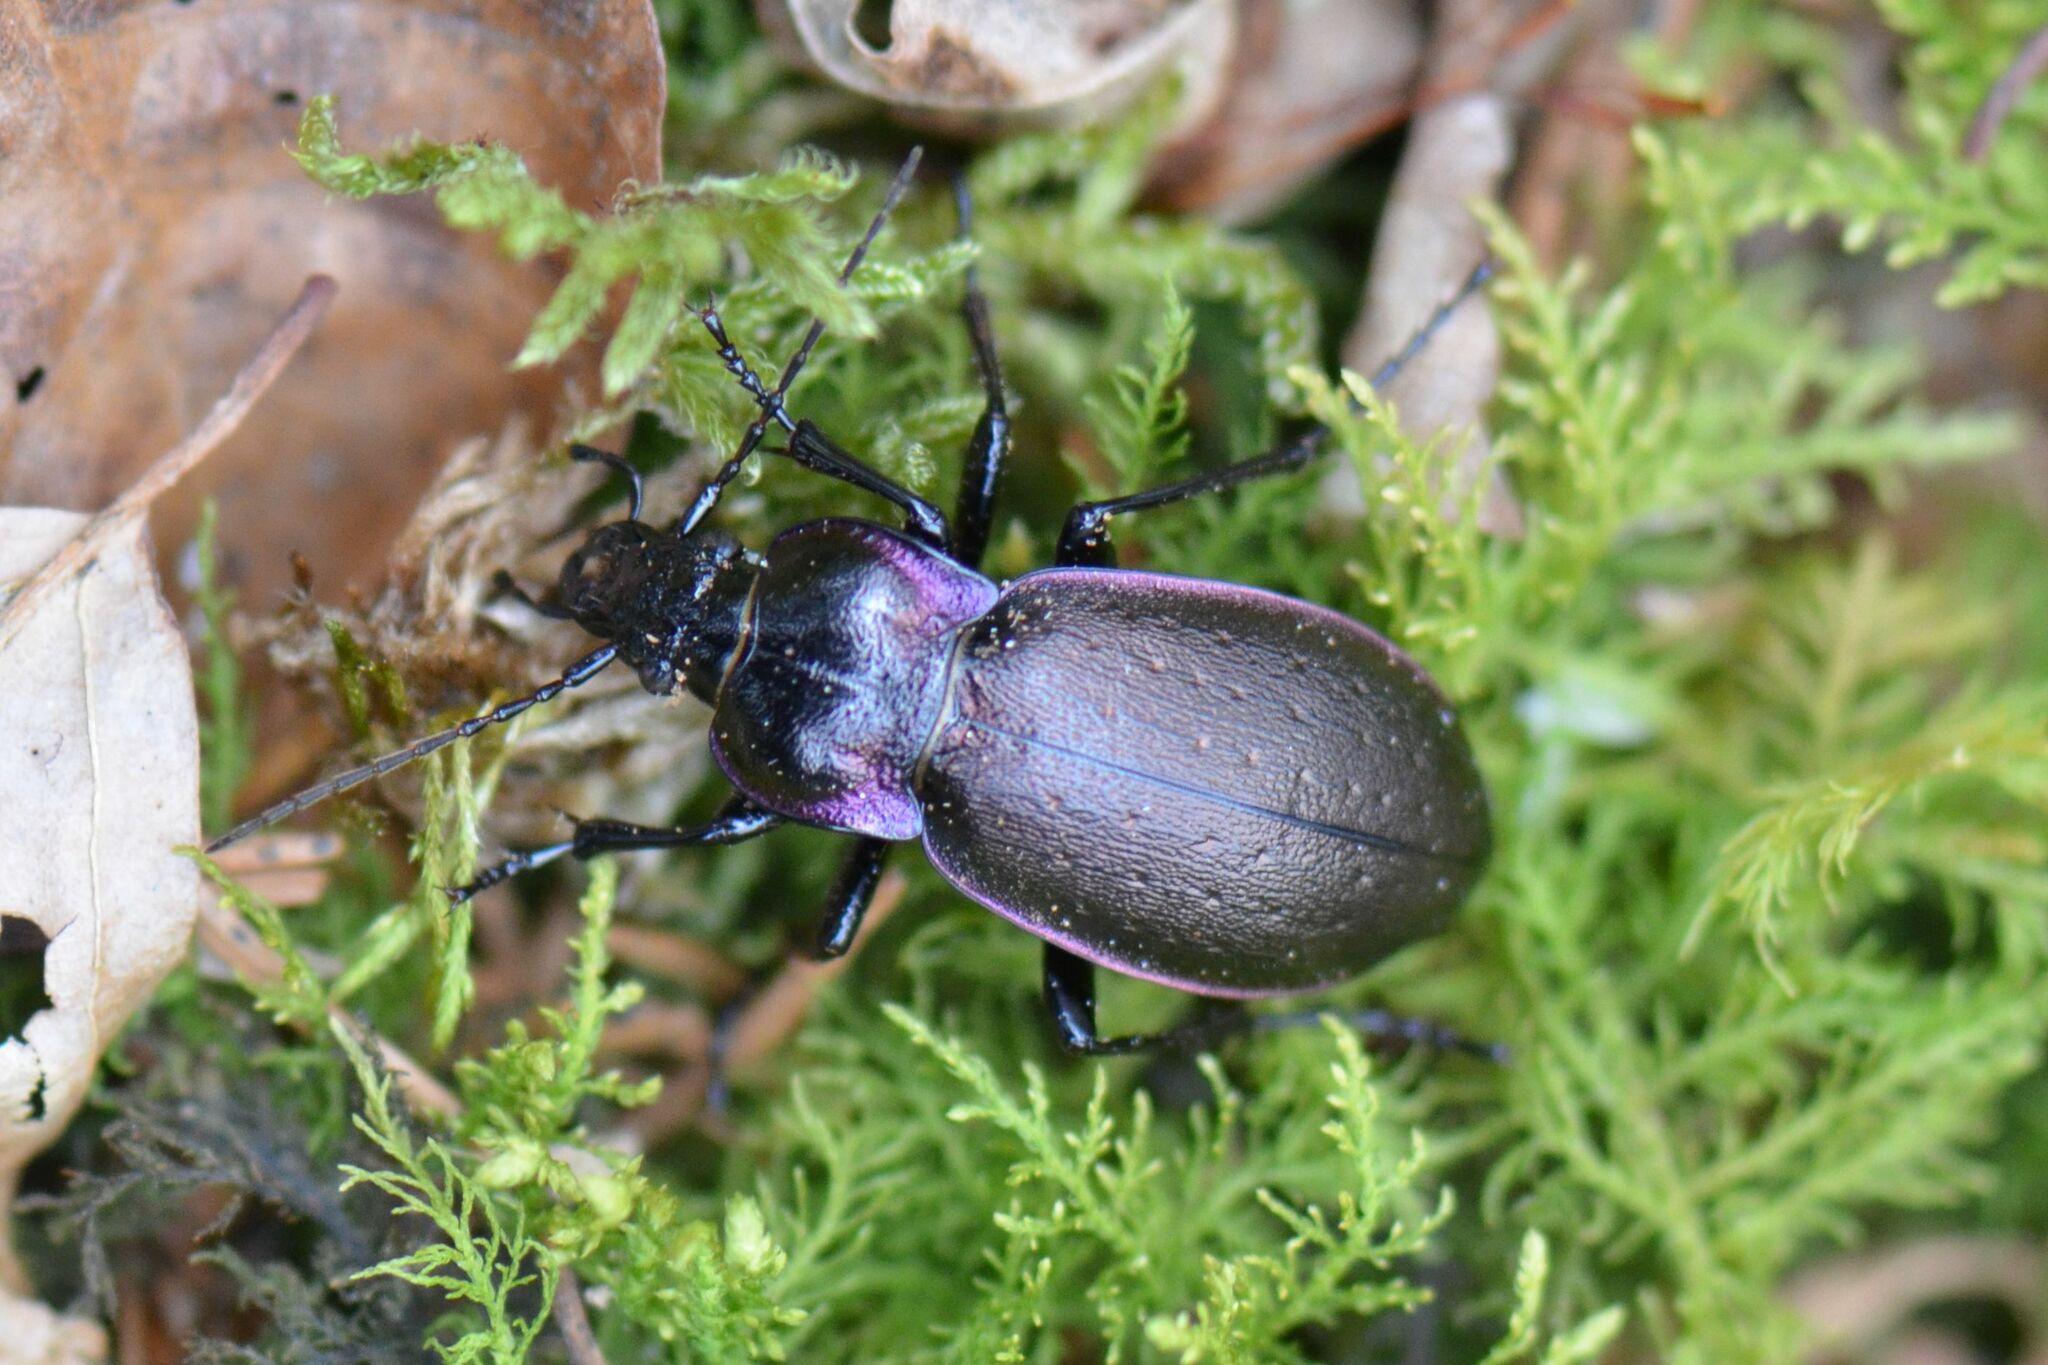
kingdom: Animalia
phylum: Arthropoda
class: Insecta
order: Coleoptera
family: Carabidae
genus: Carabus
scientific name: Carabus nemoralis
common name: European ground beetle
